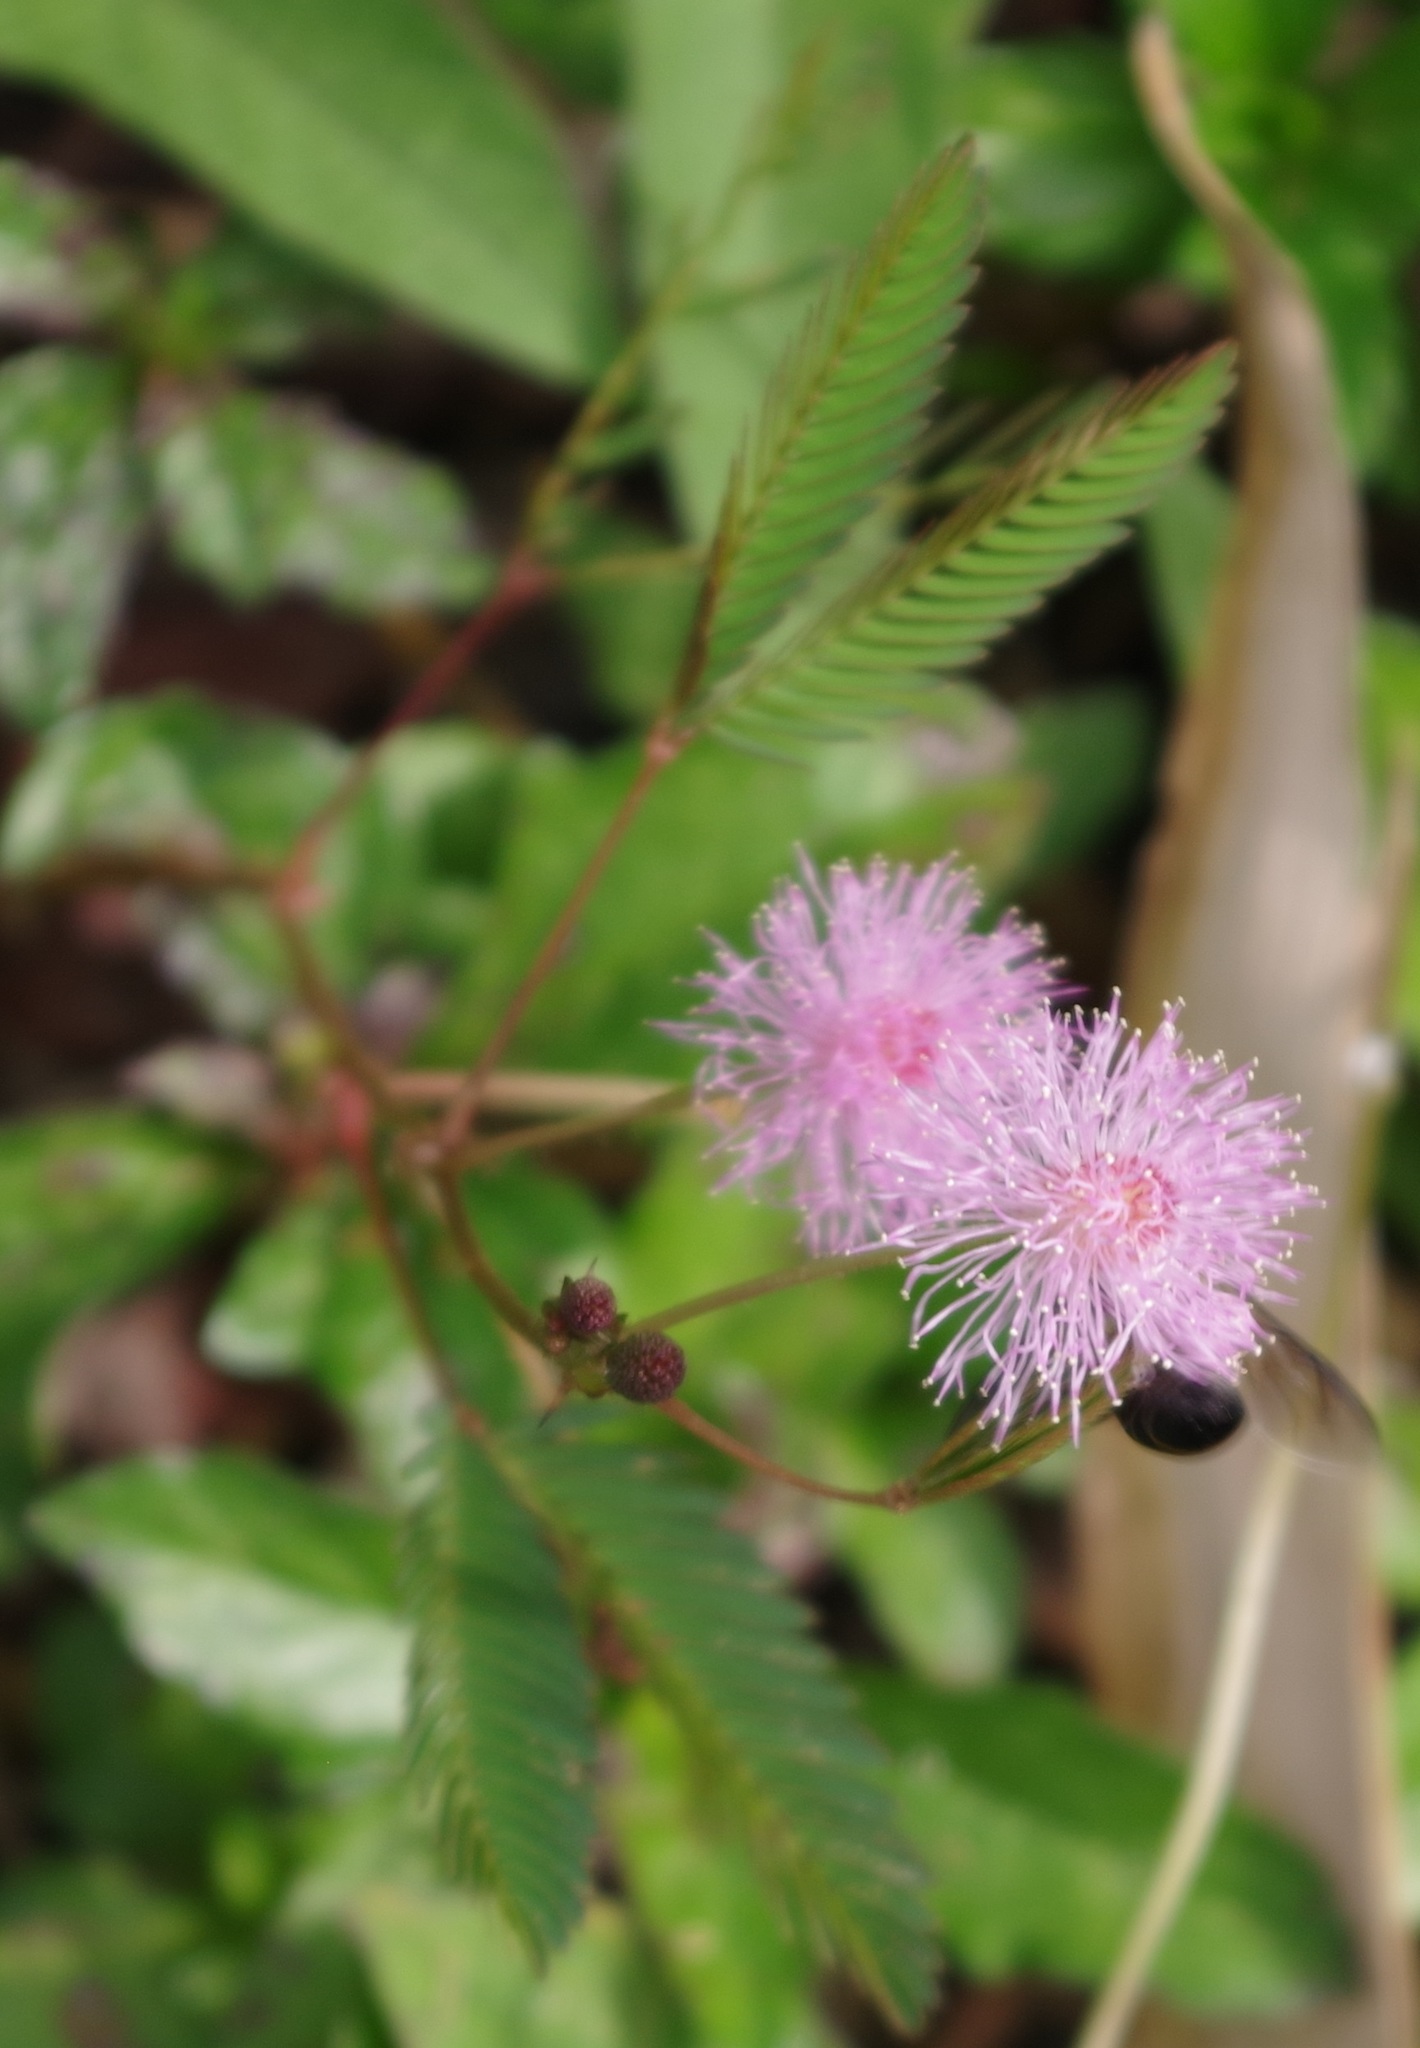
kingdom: Plantae
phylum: Tracheophyta
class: Magnoliopsida
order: Fabales
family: Fabaceae
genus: Mimosa
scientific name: Mimosa pudica
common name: Sensitive plant
